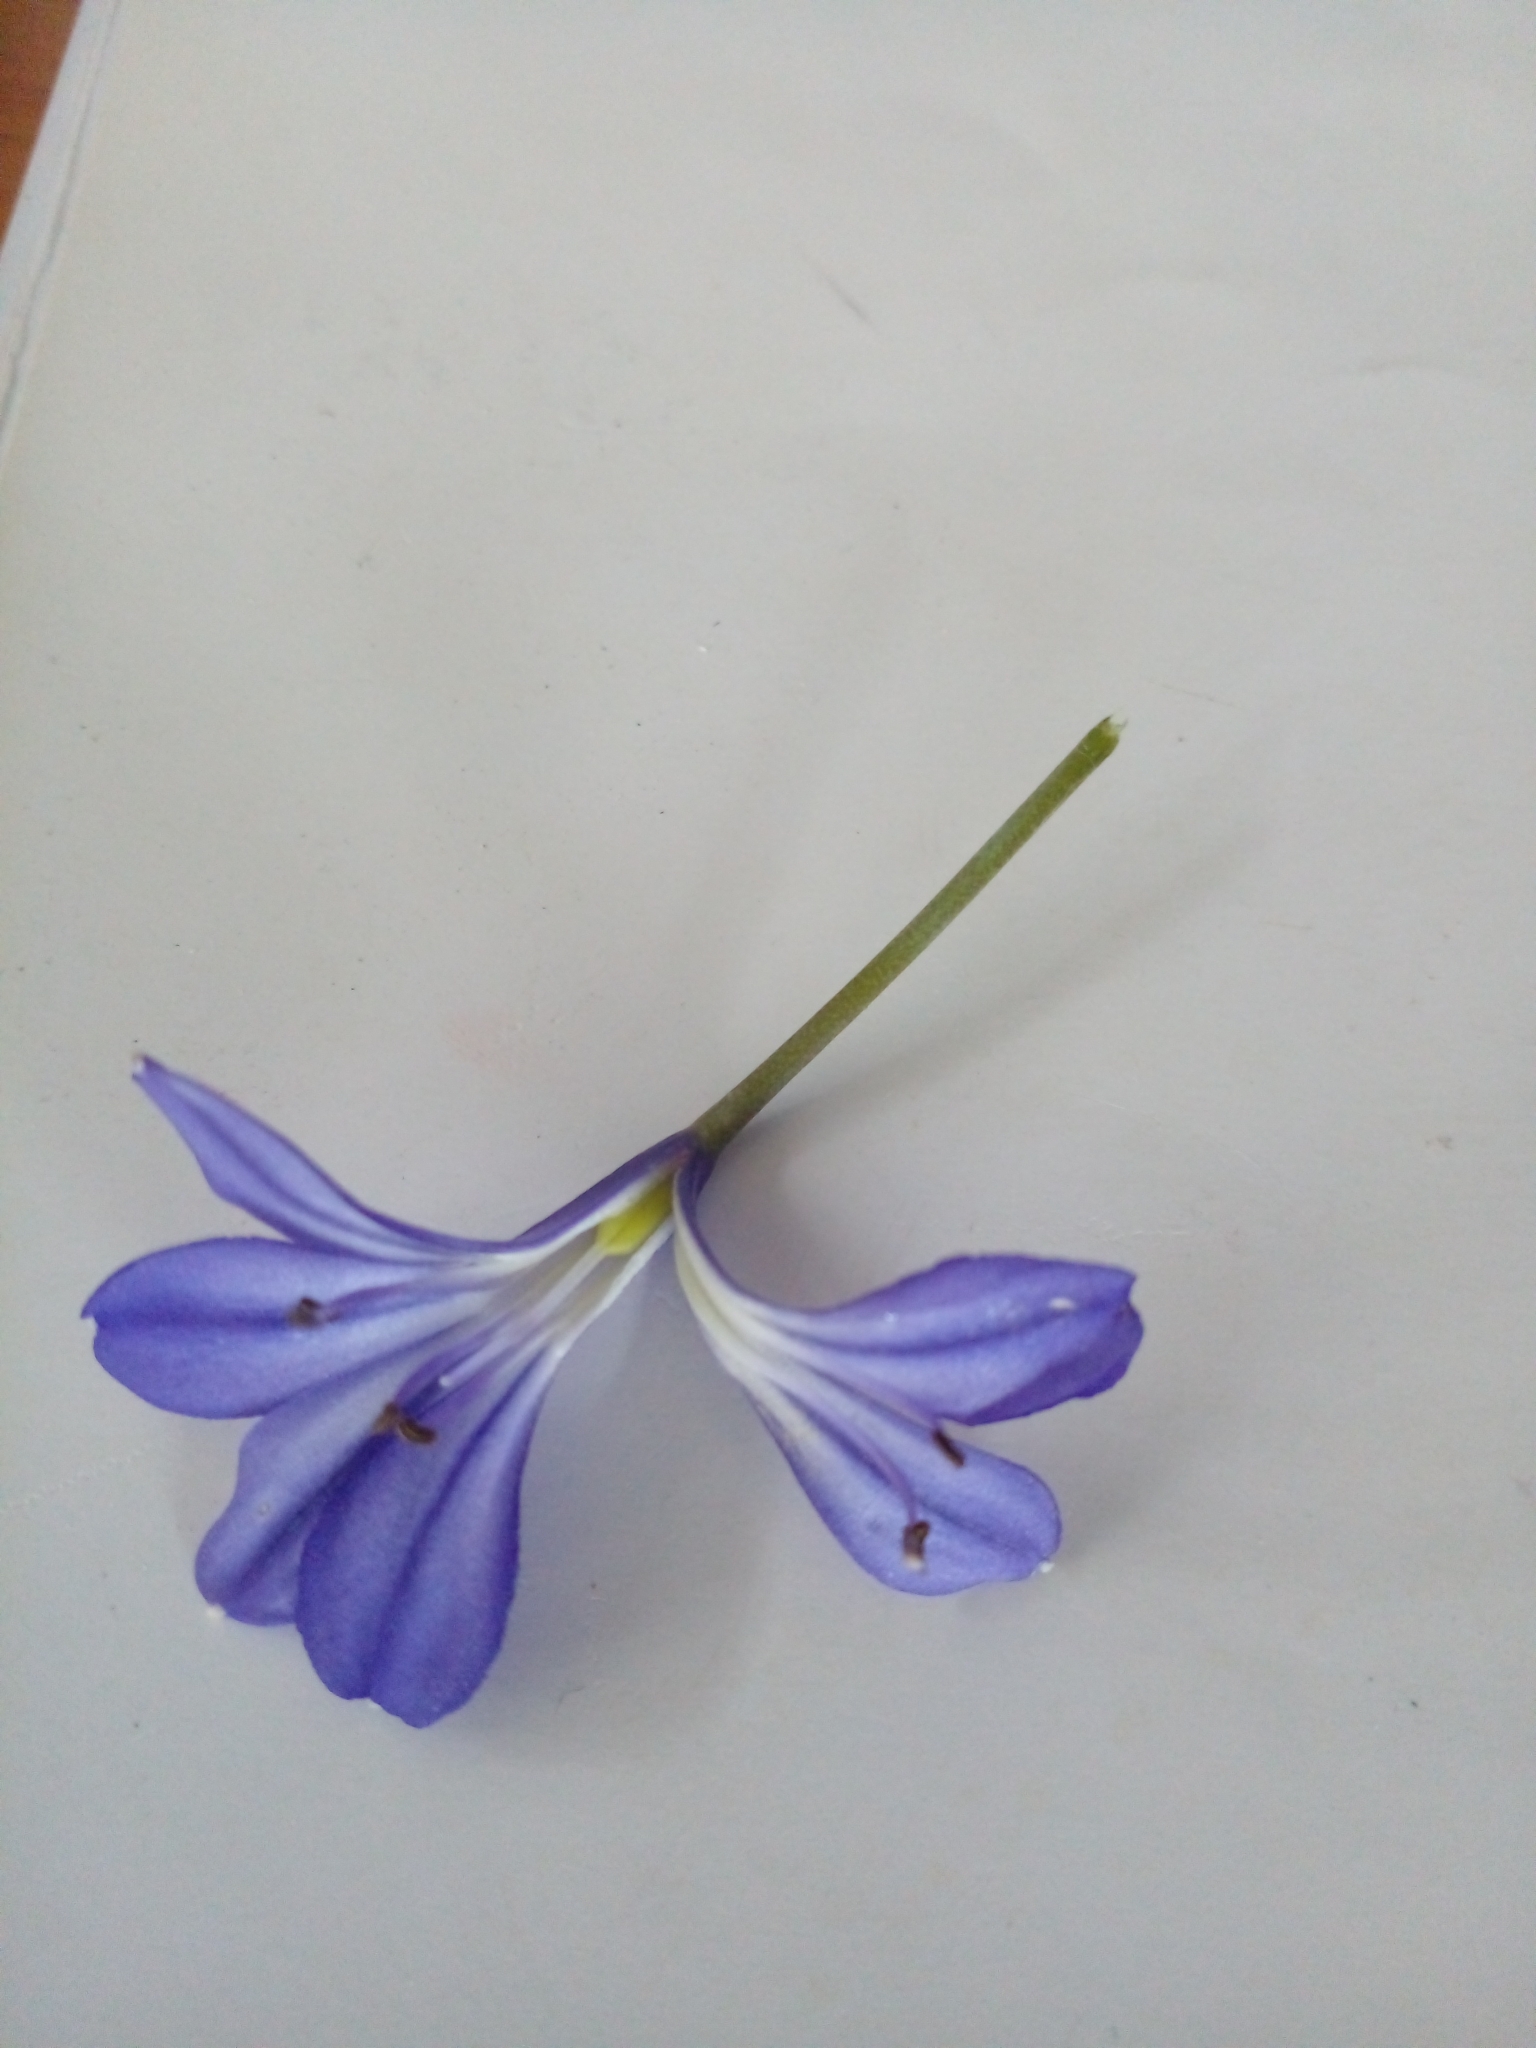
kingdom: Plantae
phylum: Tracheophyta
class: Liliopsida
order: Asparagales
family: Amaryllidaceae
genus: Agapanthus
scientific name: Agapanthus africanus
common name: Lily-of-the-nile
